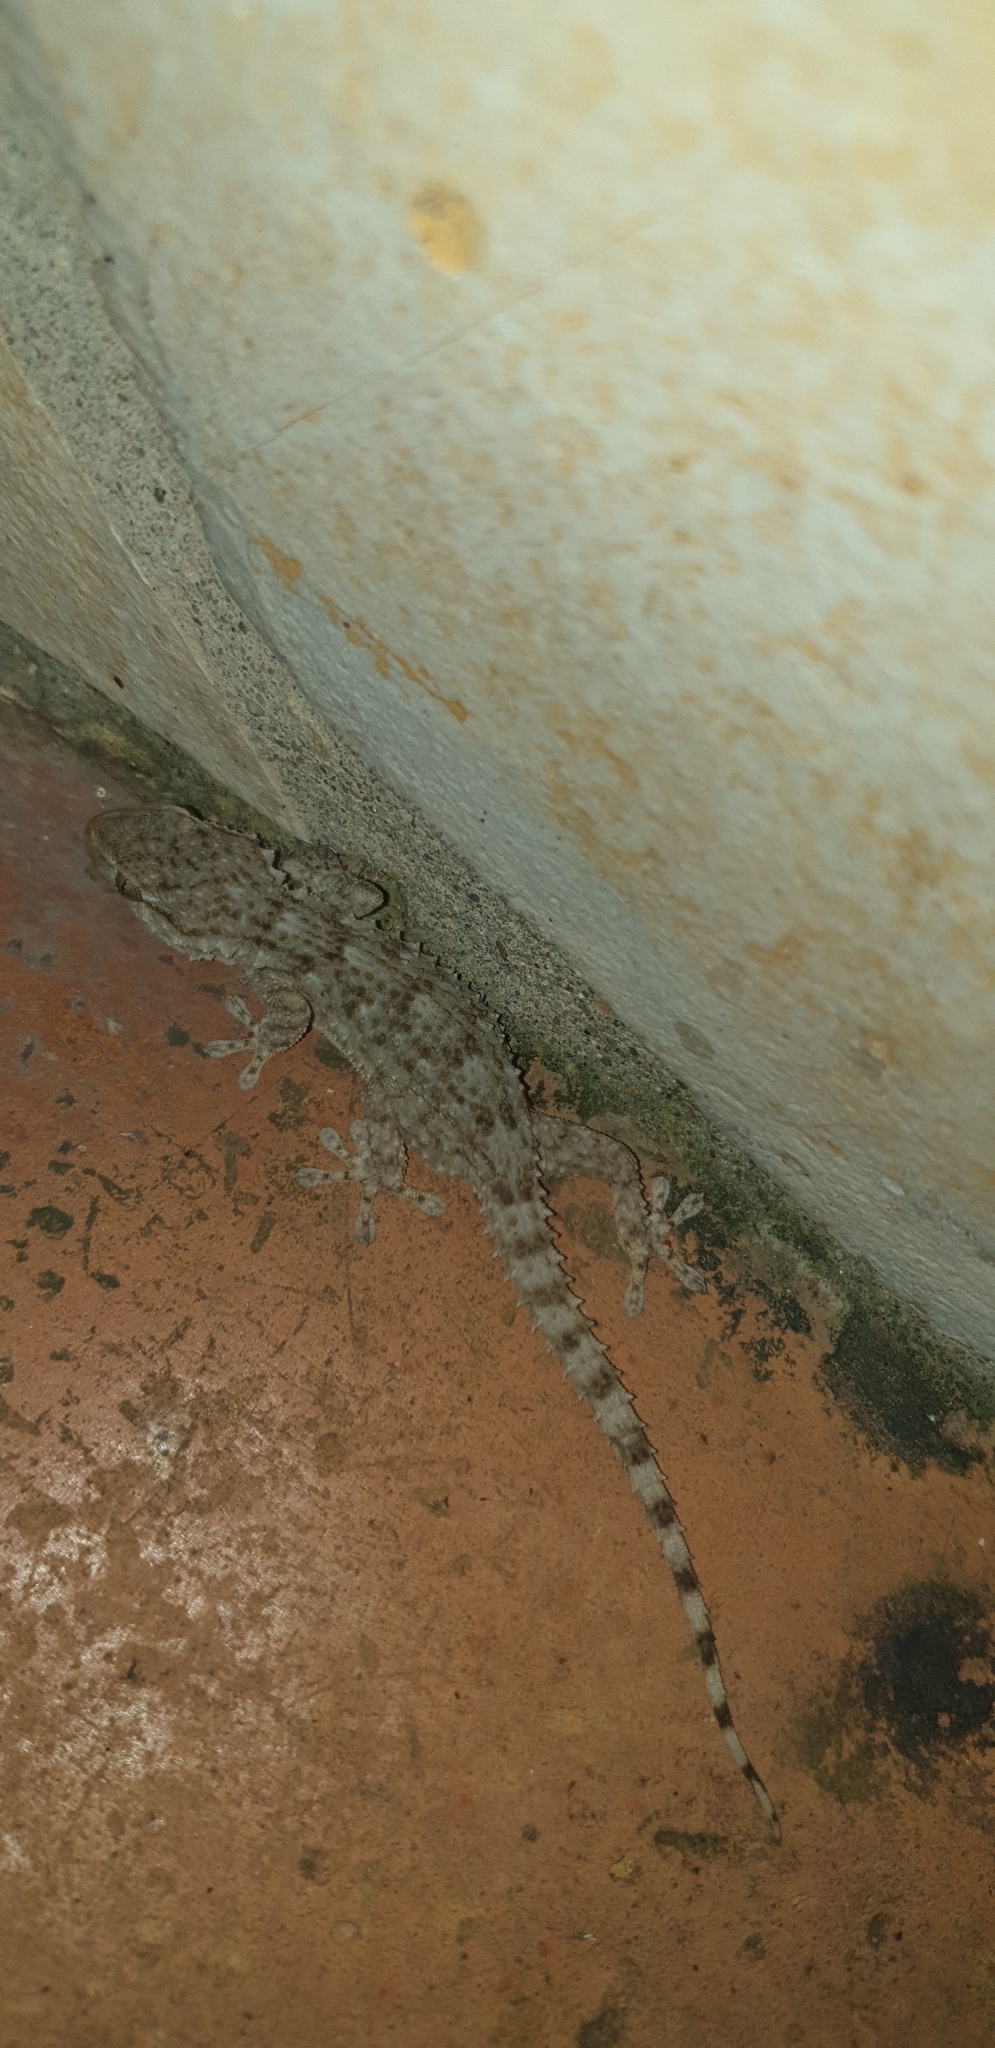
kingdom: Animalia
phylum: Chordata
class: Squamata
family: Phyllodactylidae
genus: Tarentola
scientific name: Tarentola mauritanica
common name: Moorish gecko
